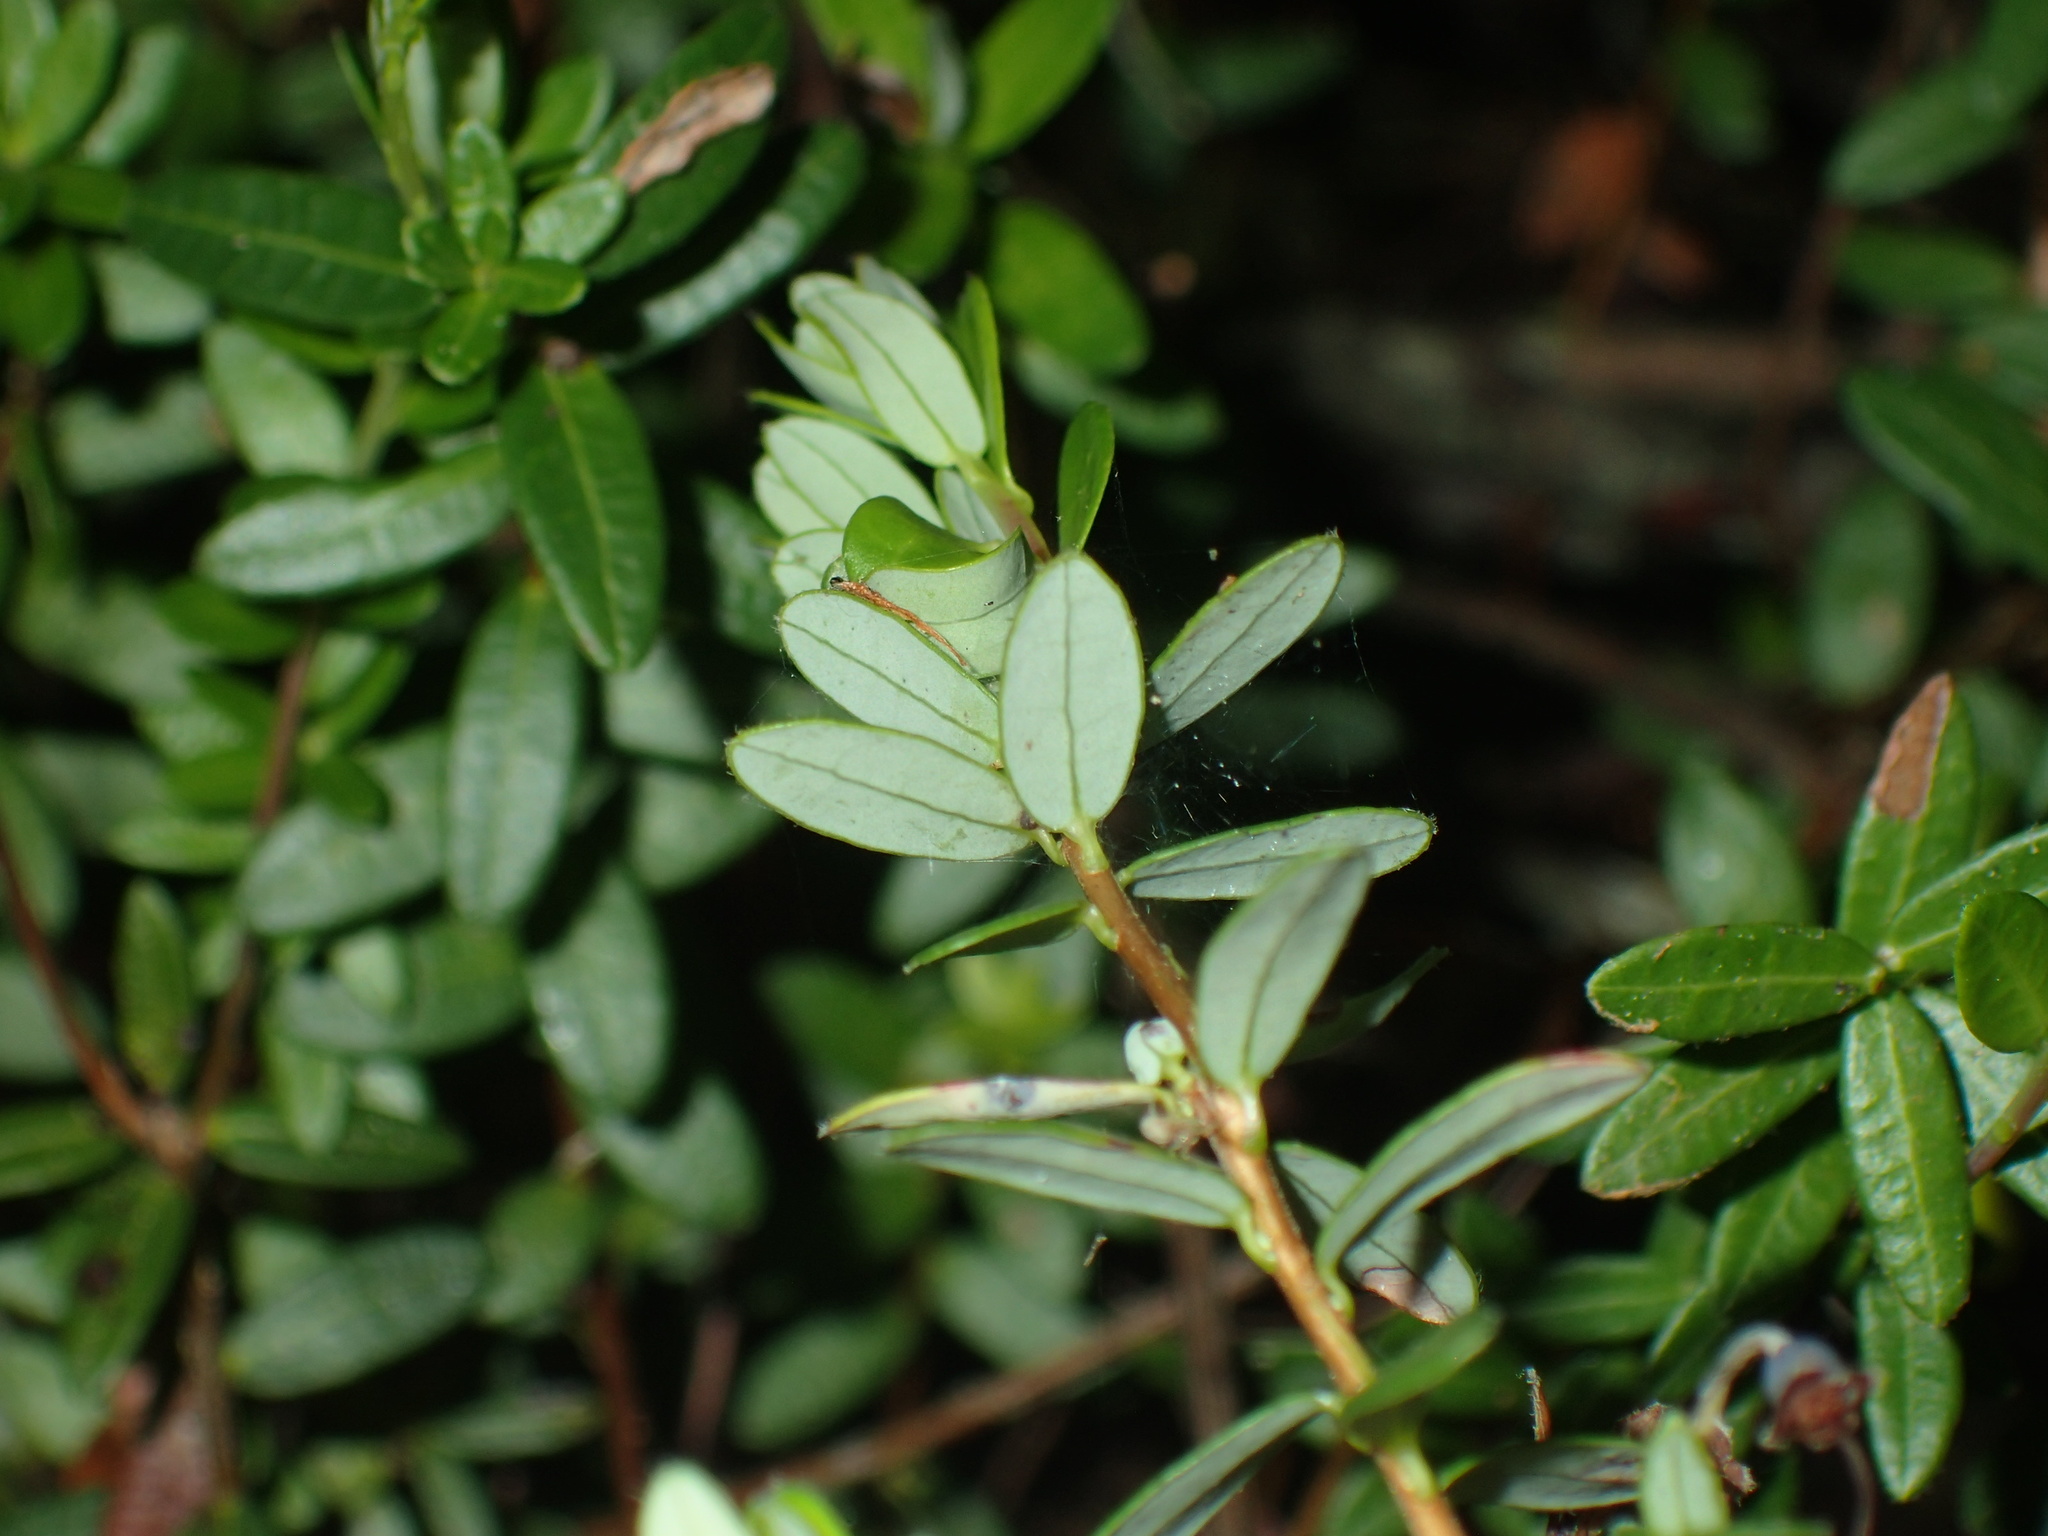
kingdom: Plantae
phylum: Tracheophyta
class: Magnoliopsida
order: Ericales
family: Ericaceae
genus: Vaccinium
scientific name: Vaccinium macrocarpon
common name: American cranberry
